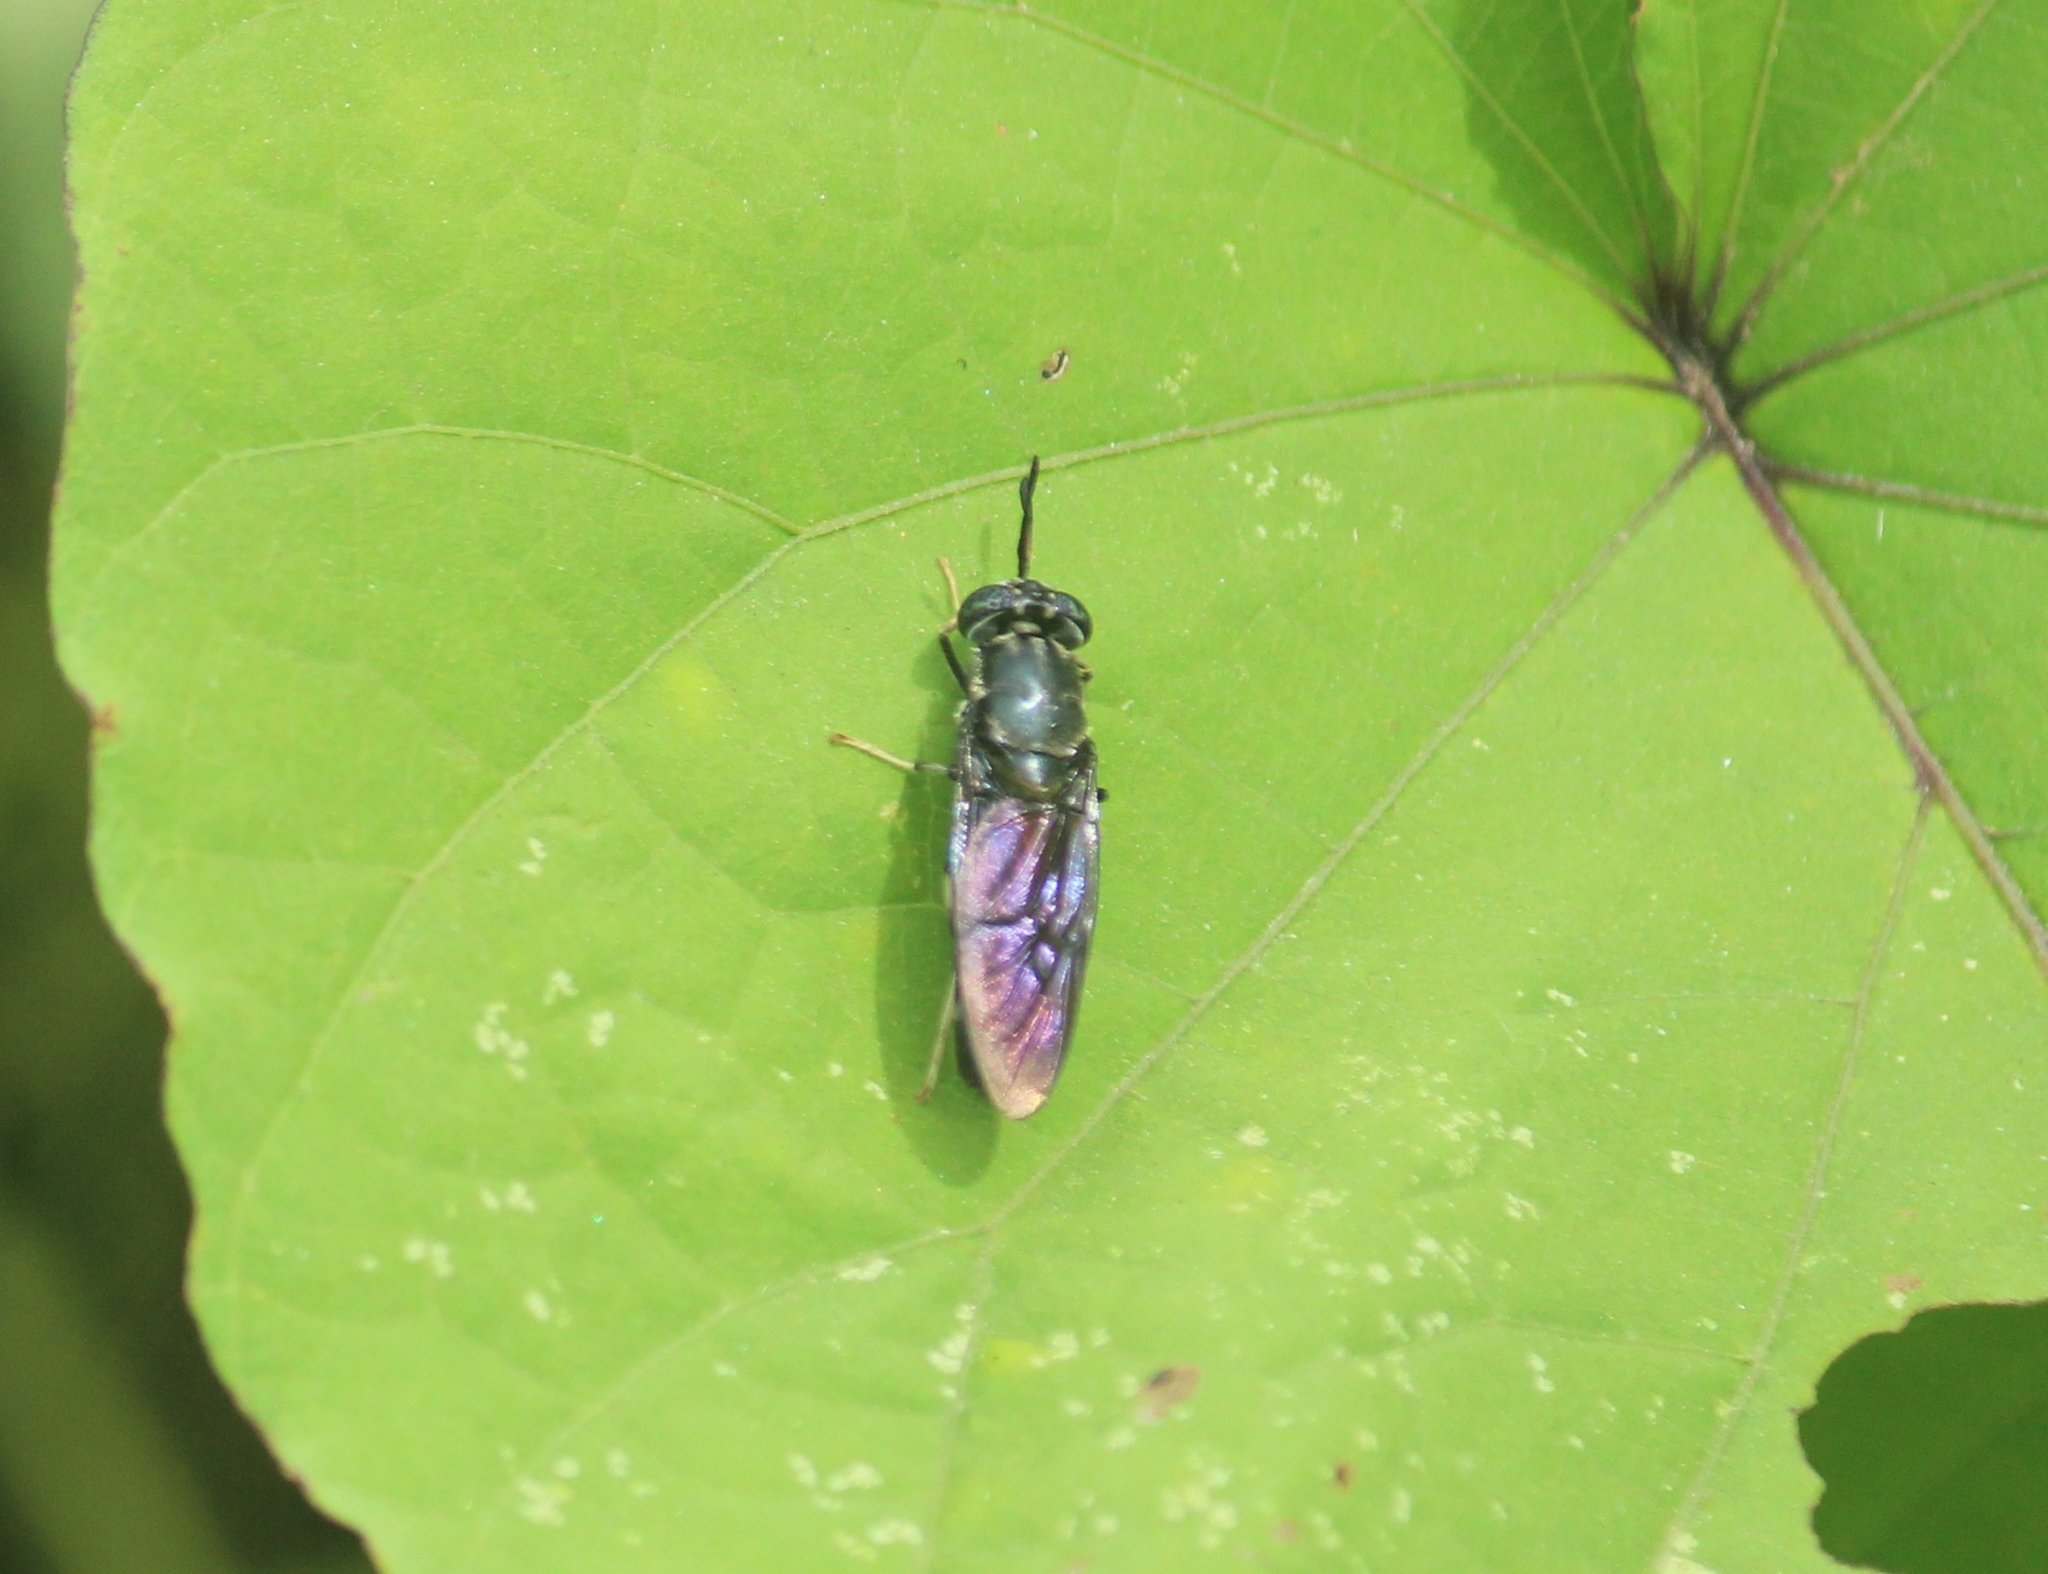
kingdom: Animalia
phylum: Arthropoda
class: Insecta
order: Diptera
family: Stratiomyidae
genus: Hermetia
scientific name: Hermetia illucens
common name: Black soldier fly
